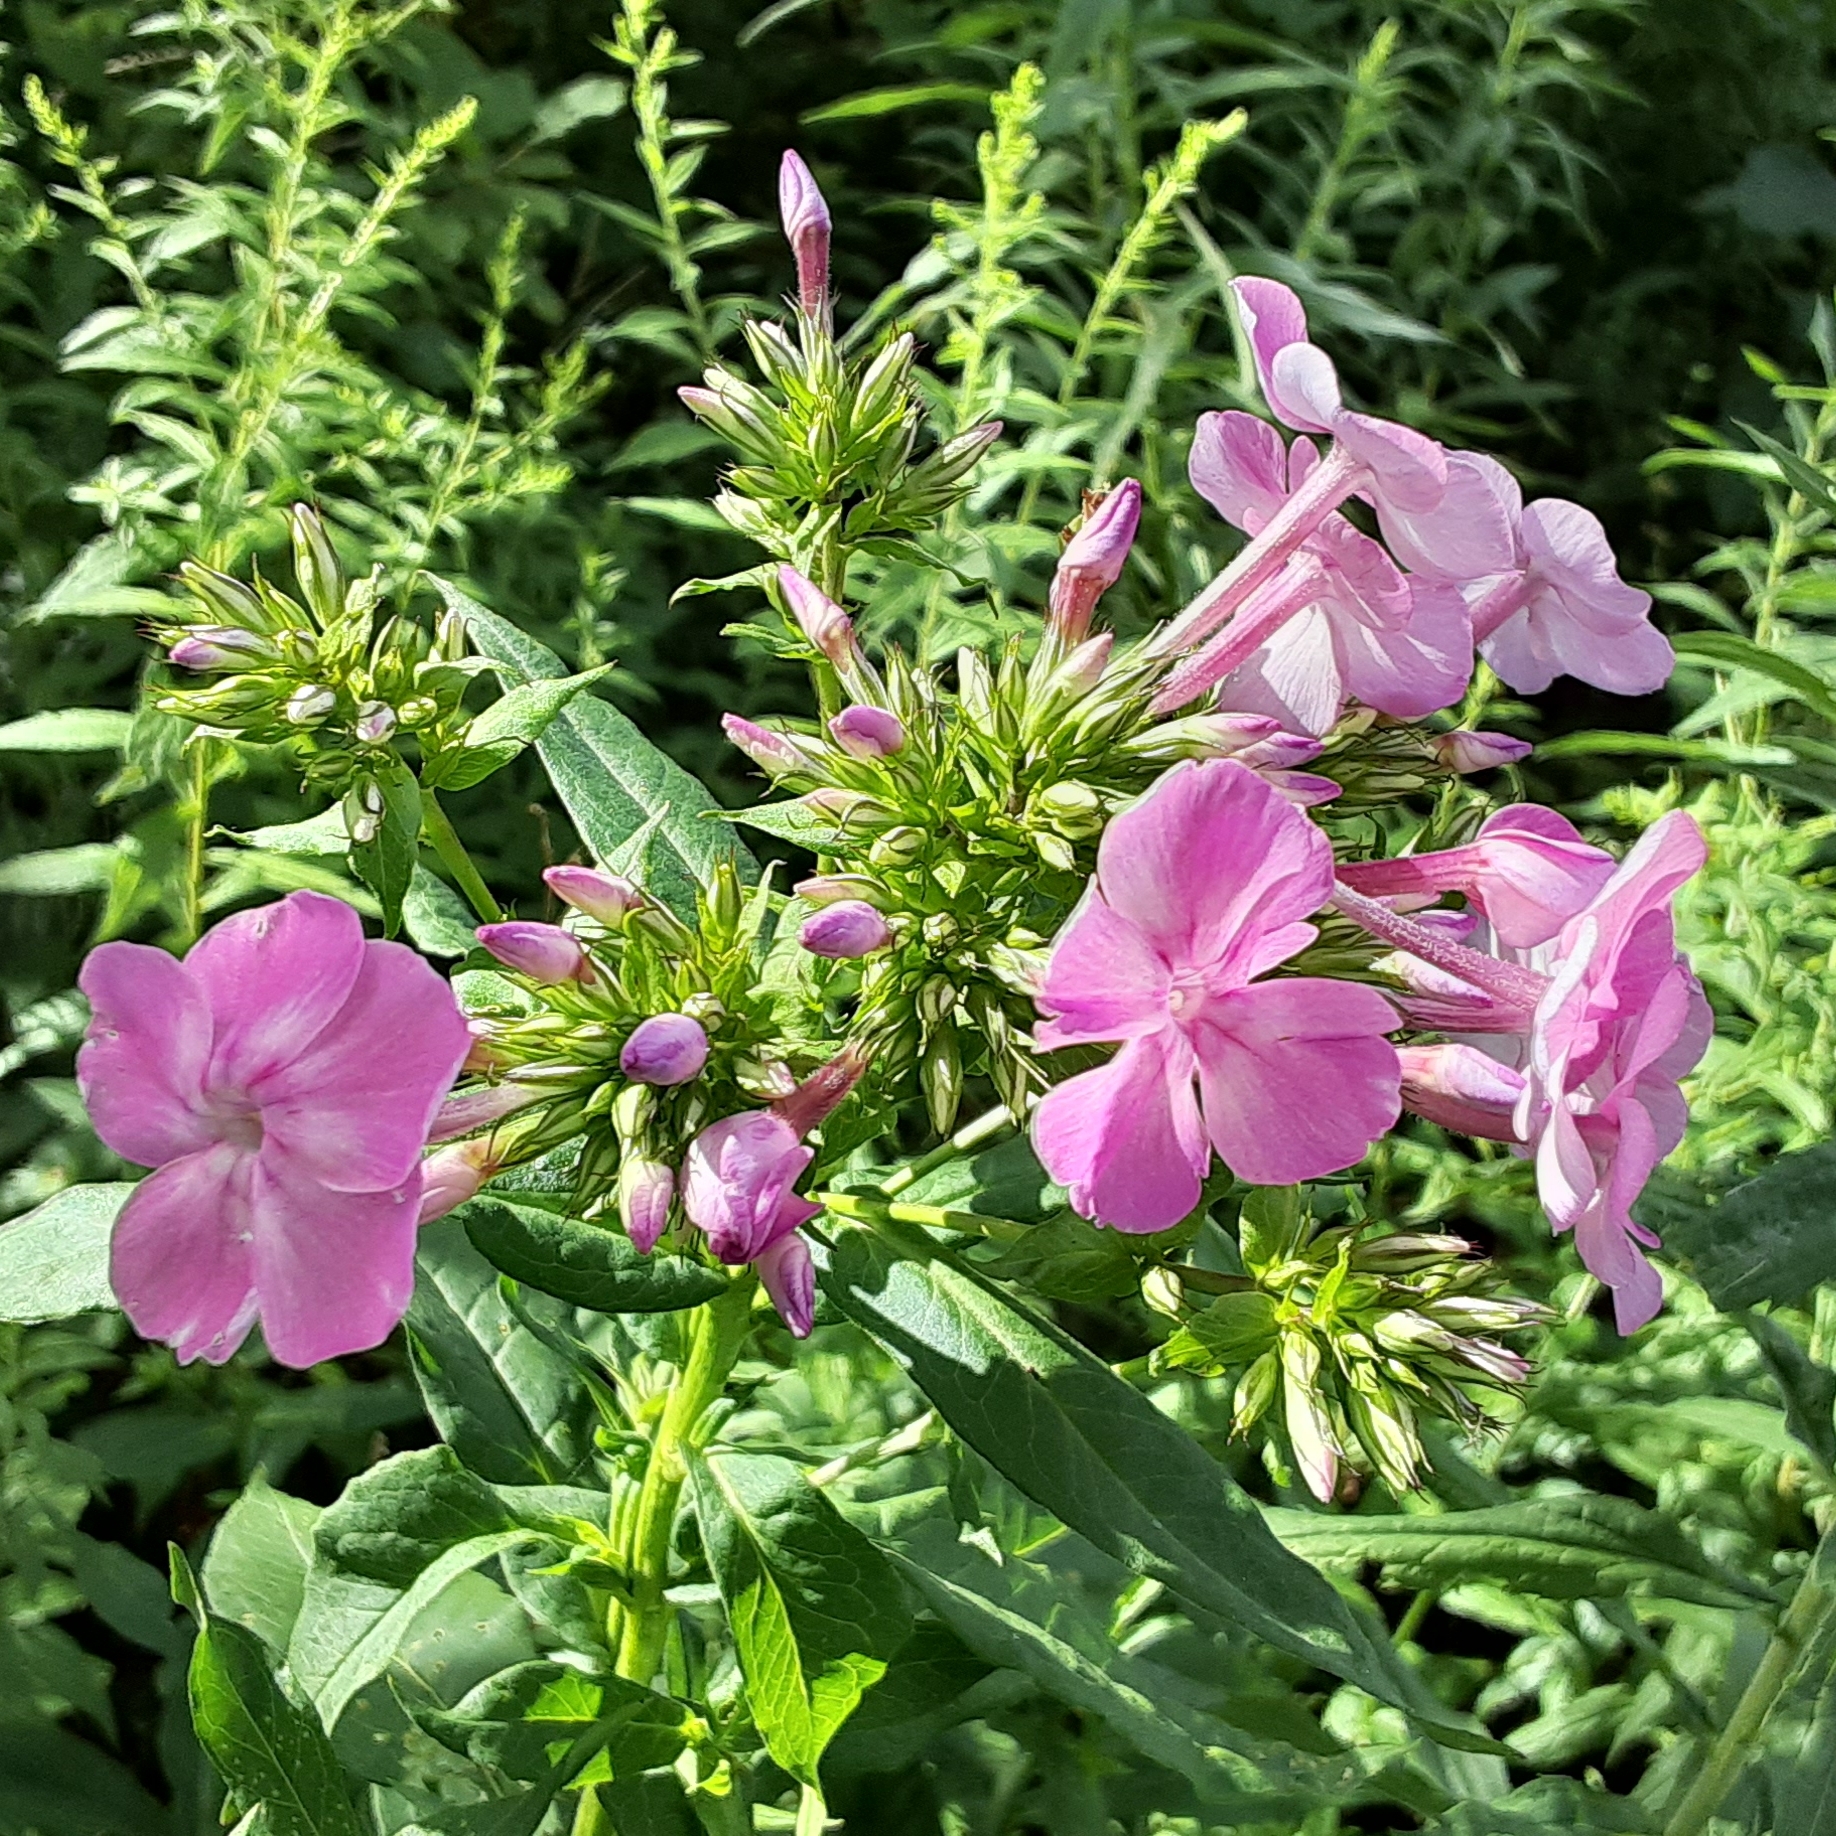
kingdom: Plantae
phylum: Tracheophyta
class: Magnoliopsida
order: Ericales
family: Polemoniaceae
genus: Phlox
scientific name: Phlox paniculata
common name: Fall phlox
